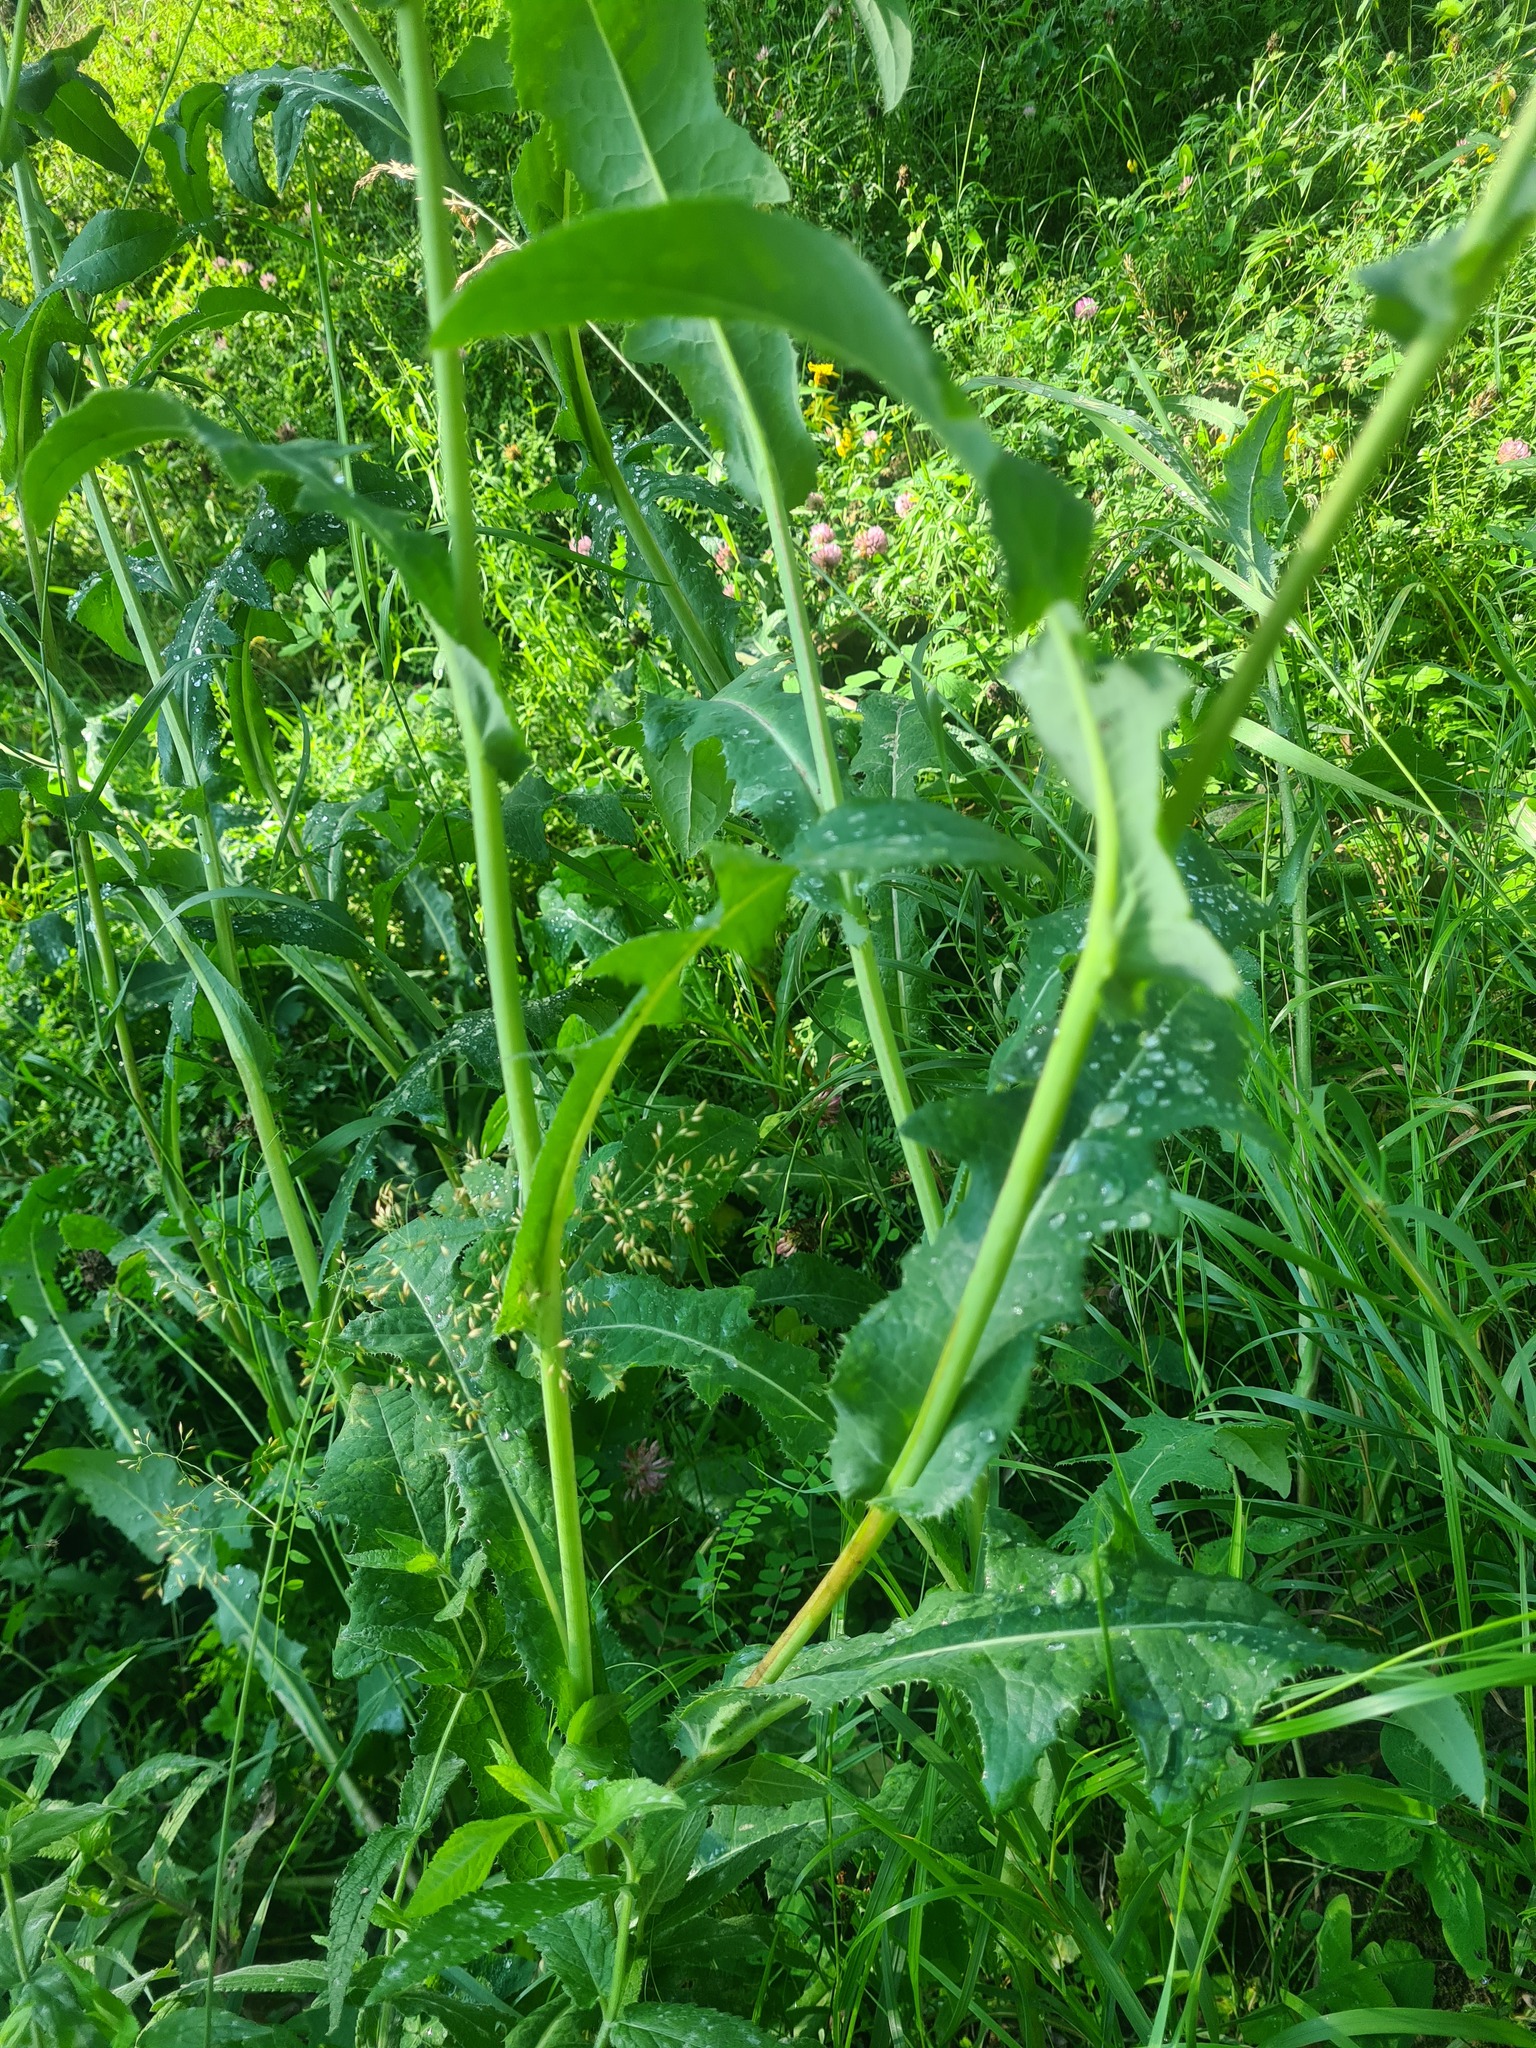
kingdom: Plantae
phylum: Tracheophyta
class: Magnoliopsida
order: Asterales
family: Asteraceae
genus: Sonchus
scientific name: Sonchus arvensis
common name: Perennial sow-thistle
